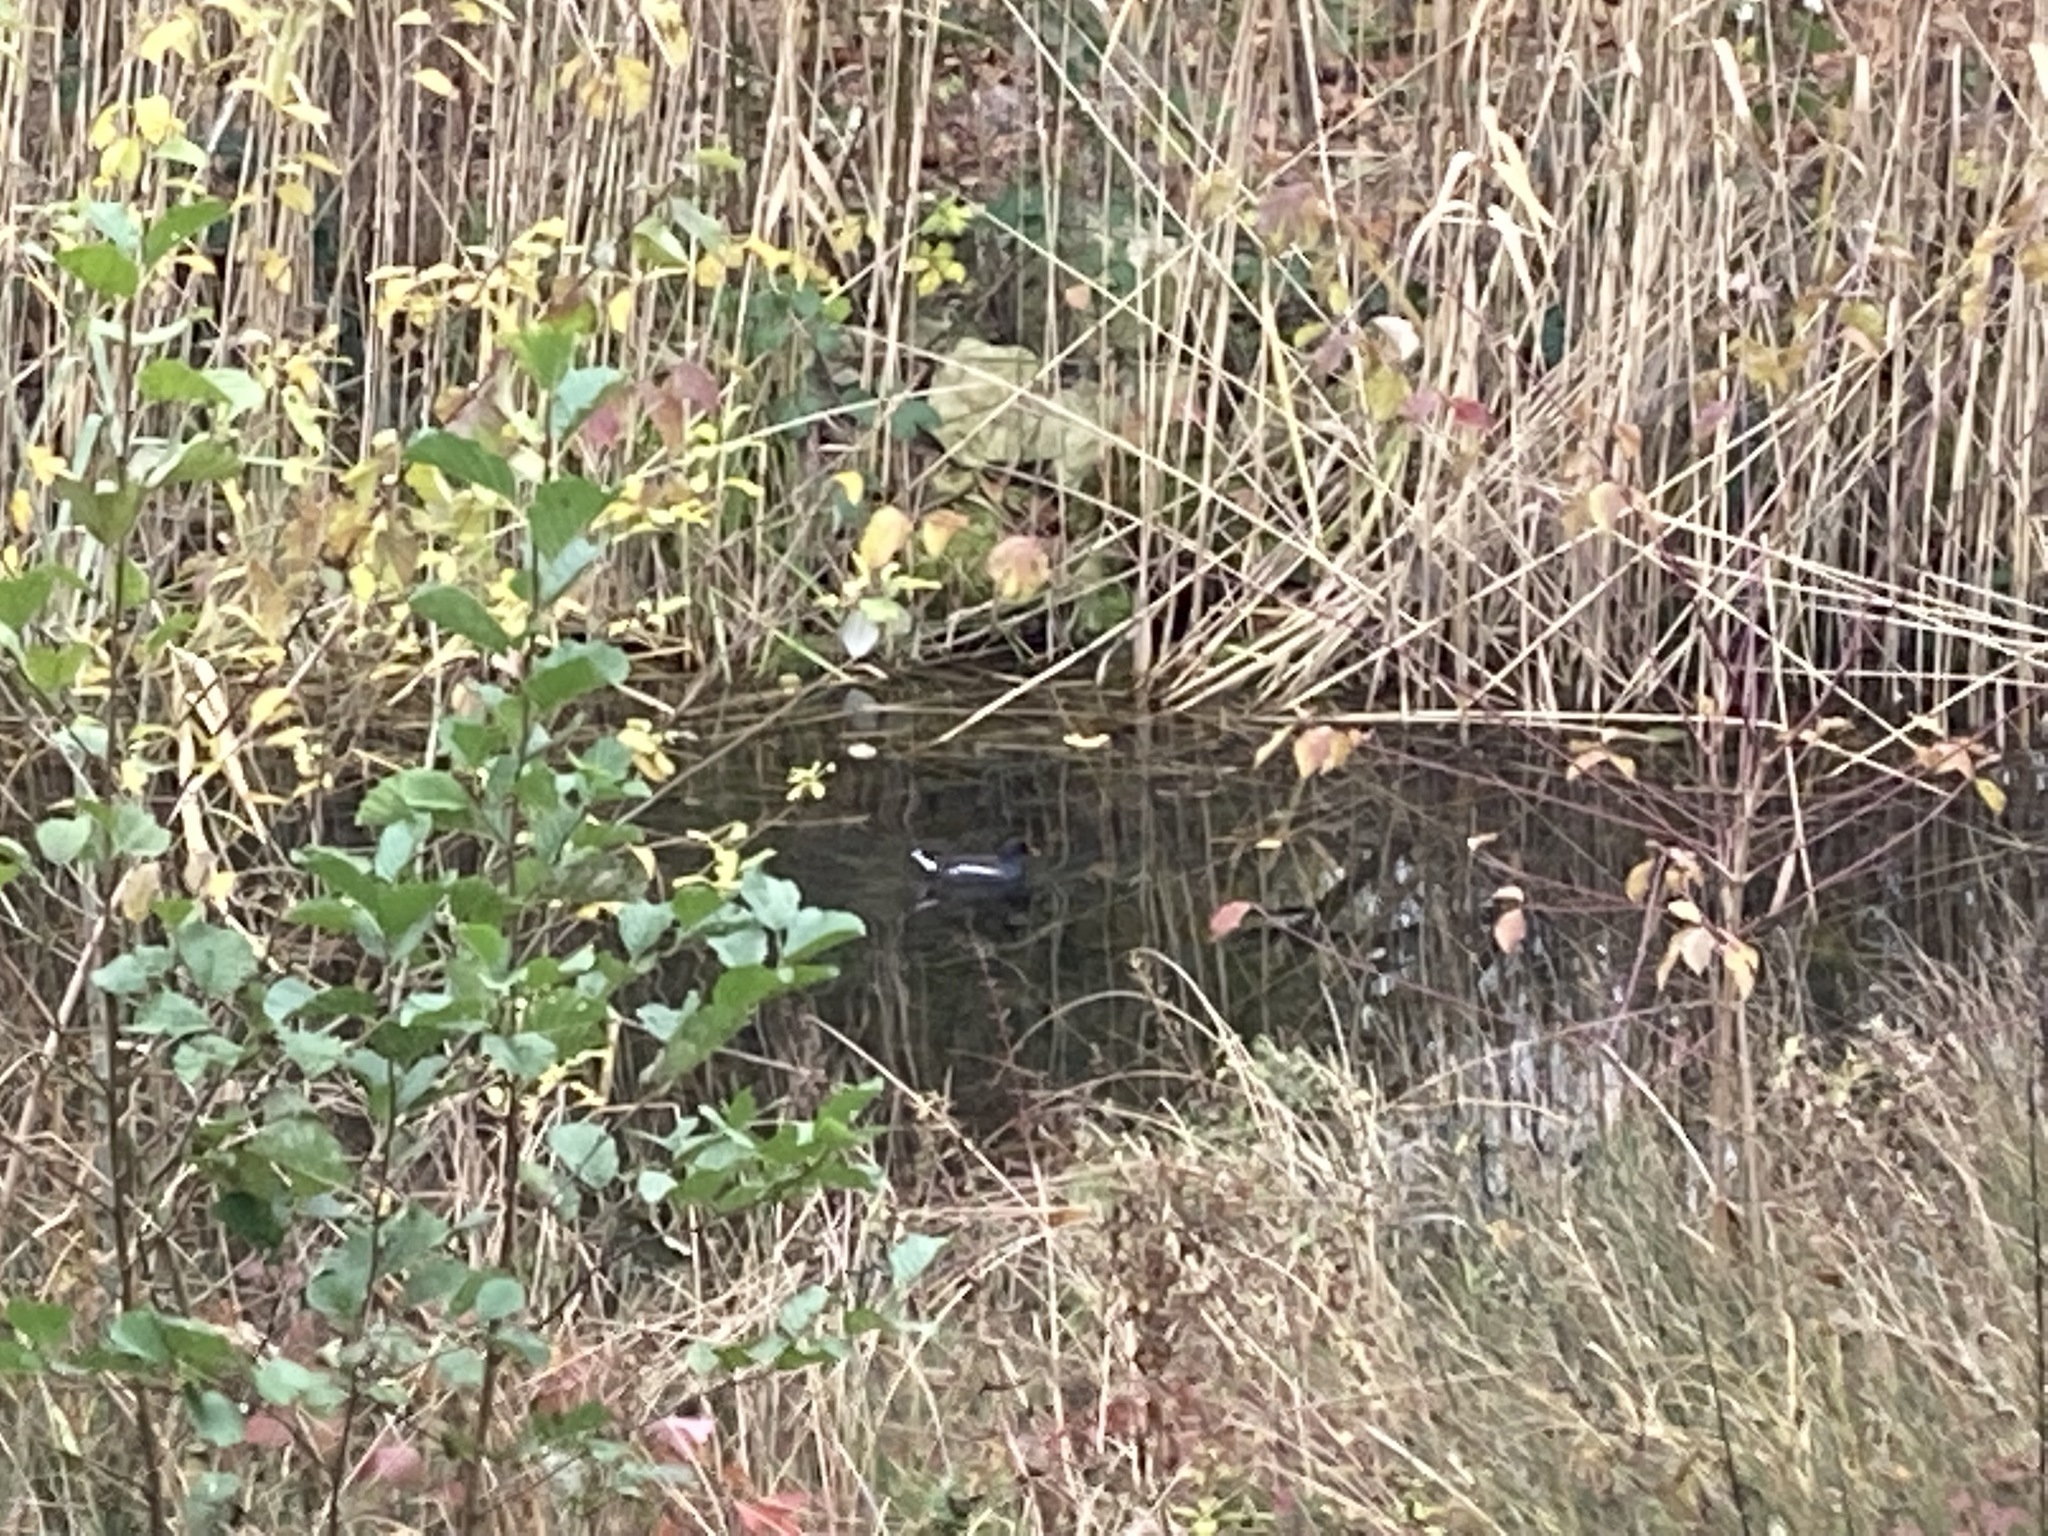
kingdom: Animalia
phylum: Chordata
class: Aves
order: Gruiformes
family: Rallidae
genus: Gallinula
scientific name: Gallinula chloropus
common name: Common moorhen
